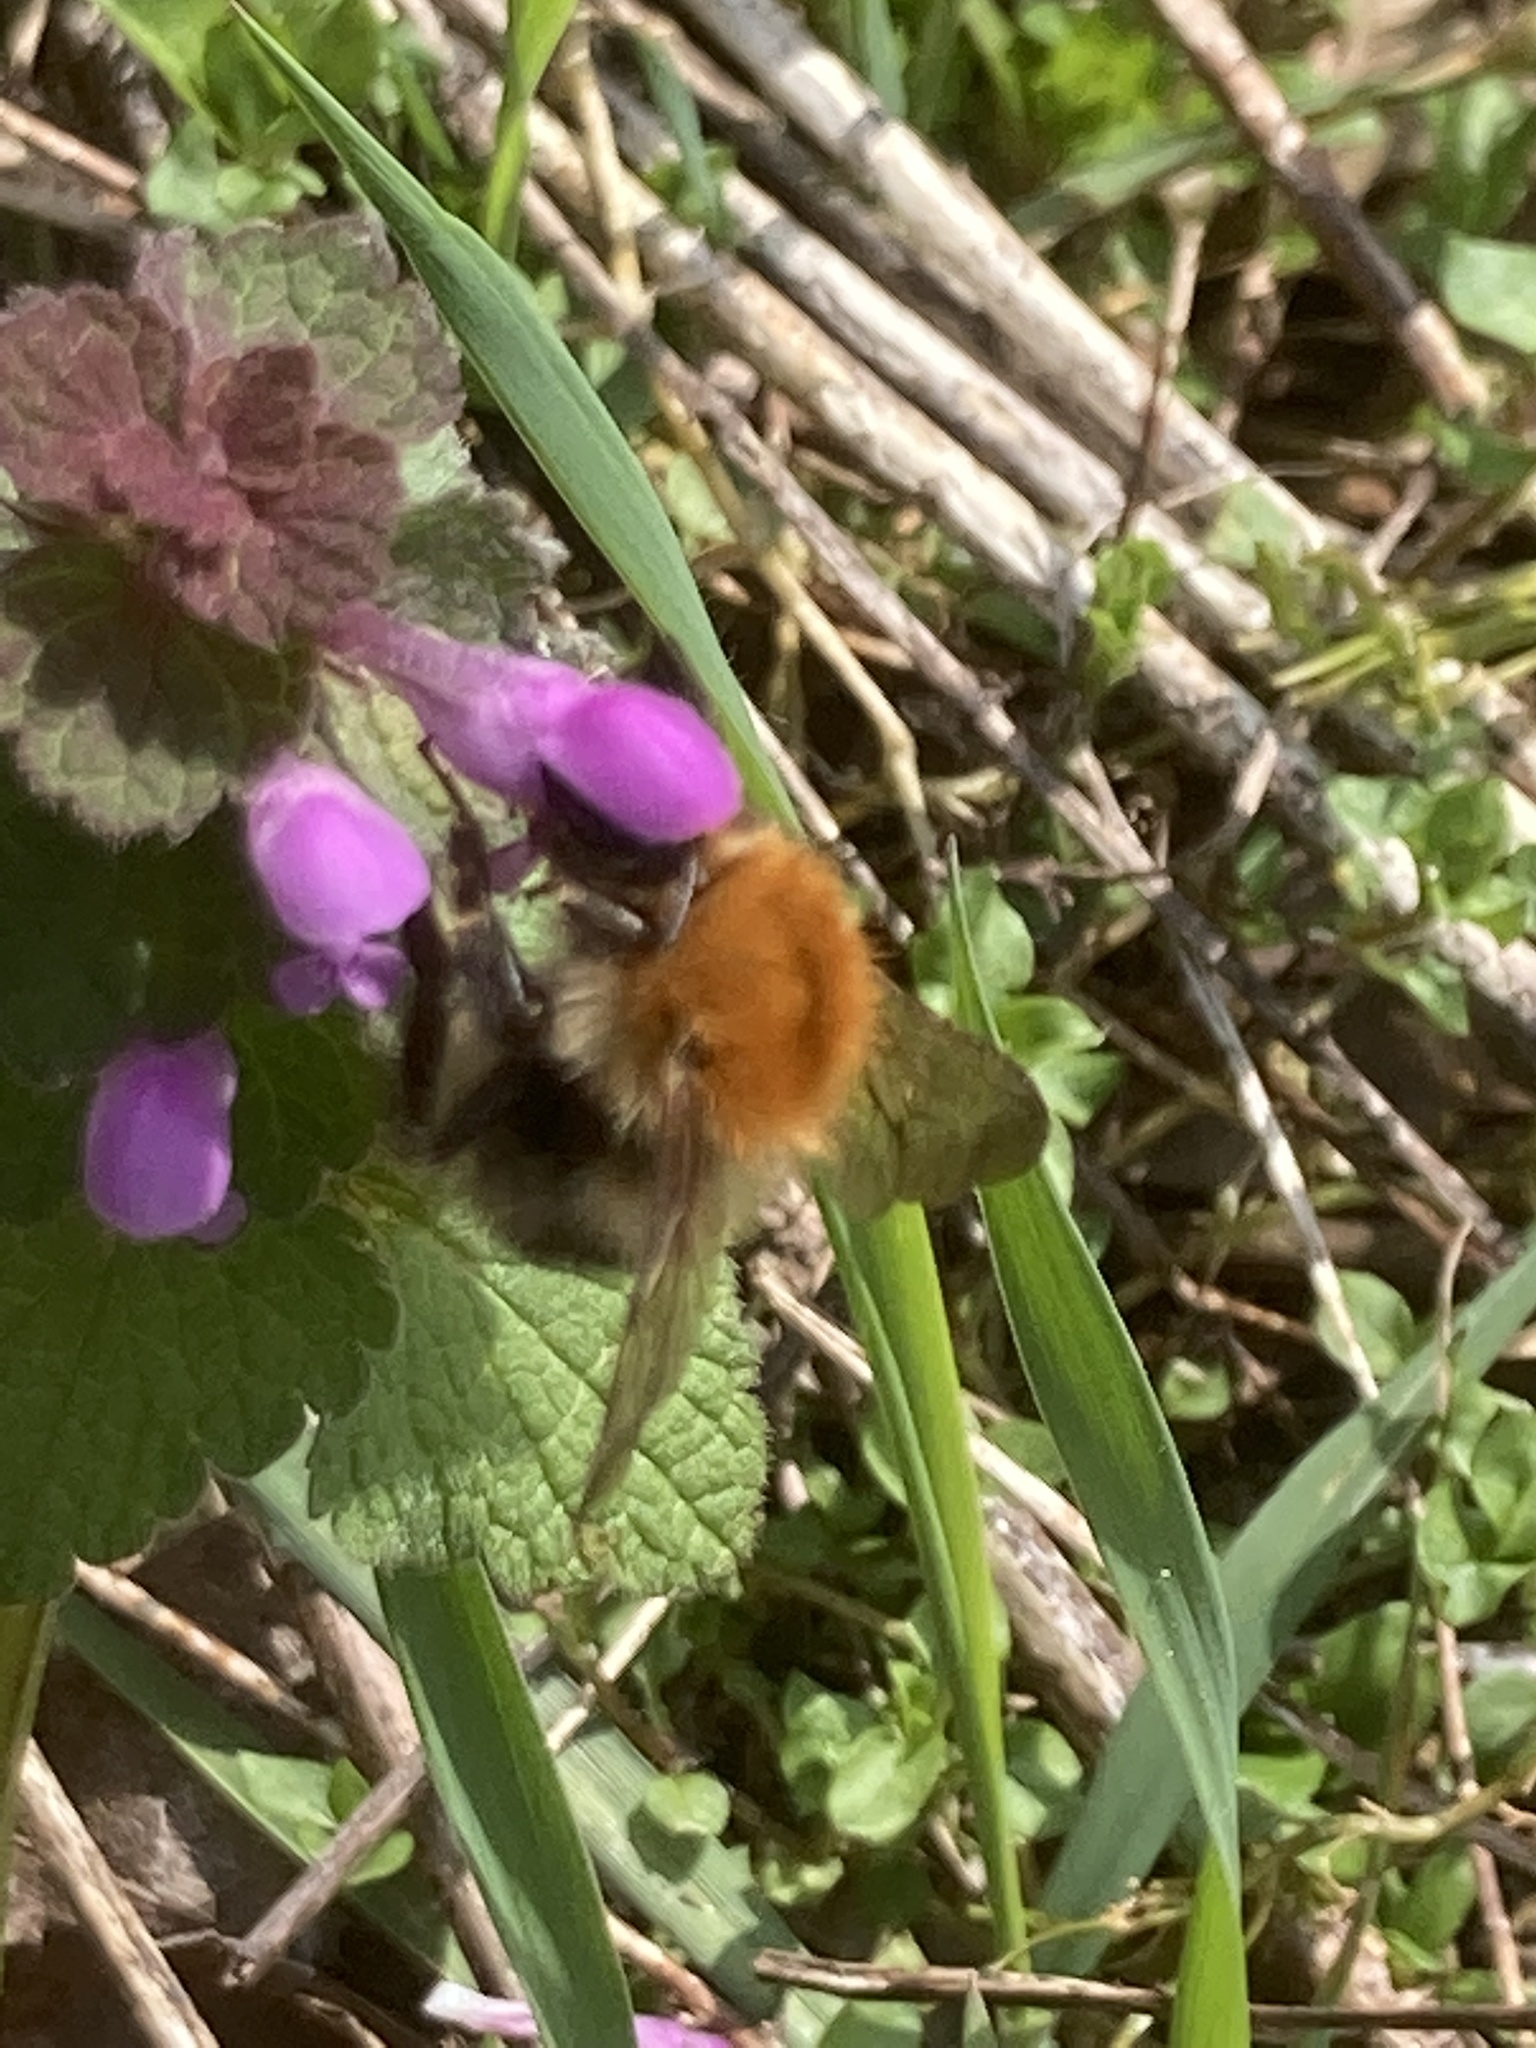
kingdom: Animalia
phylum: Arthropoda
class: Insecta
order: Hymenoptera
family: Apidae
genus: Bombus
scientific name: Bombus pascuorum
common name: Common carder bee
